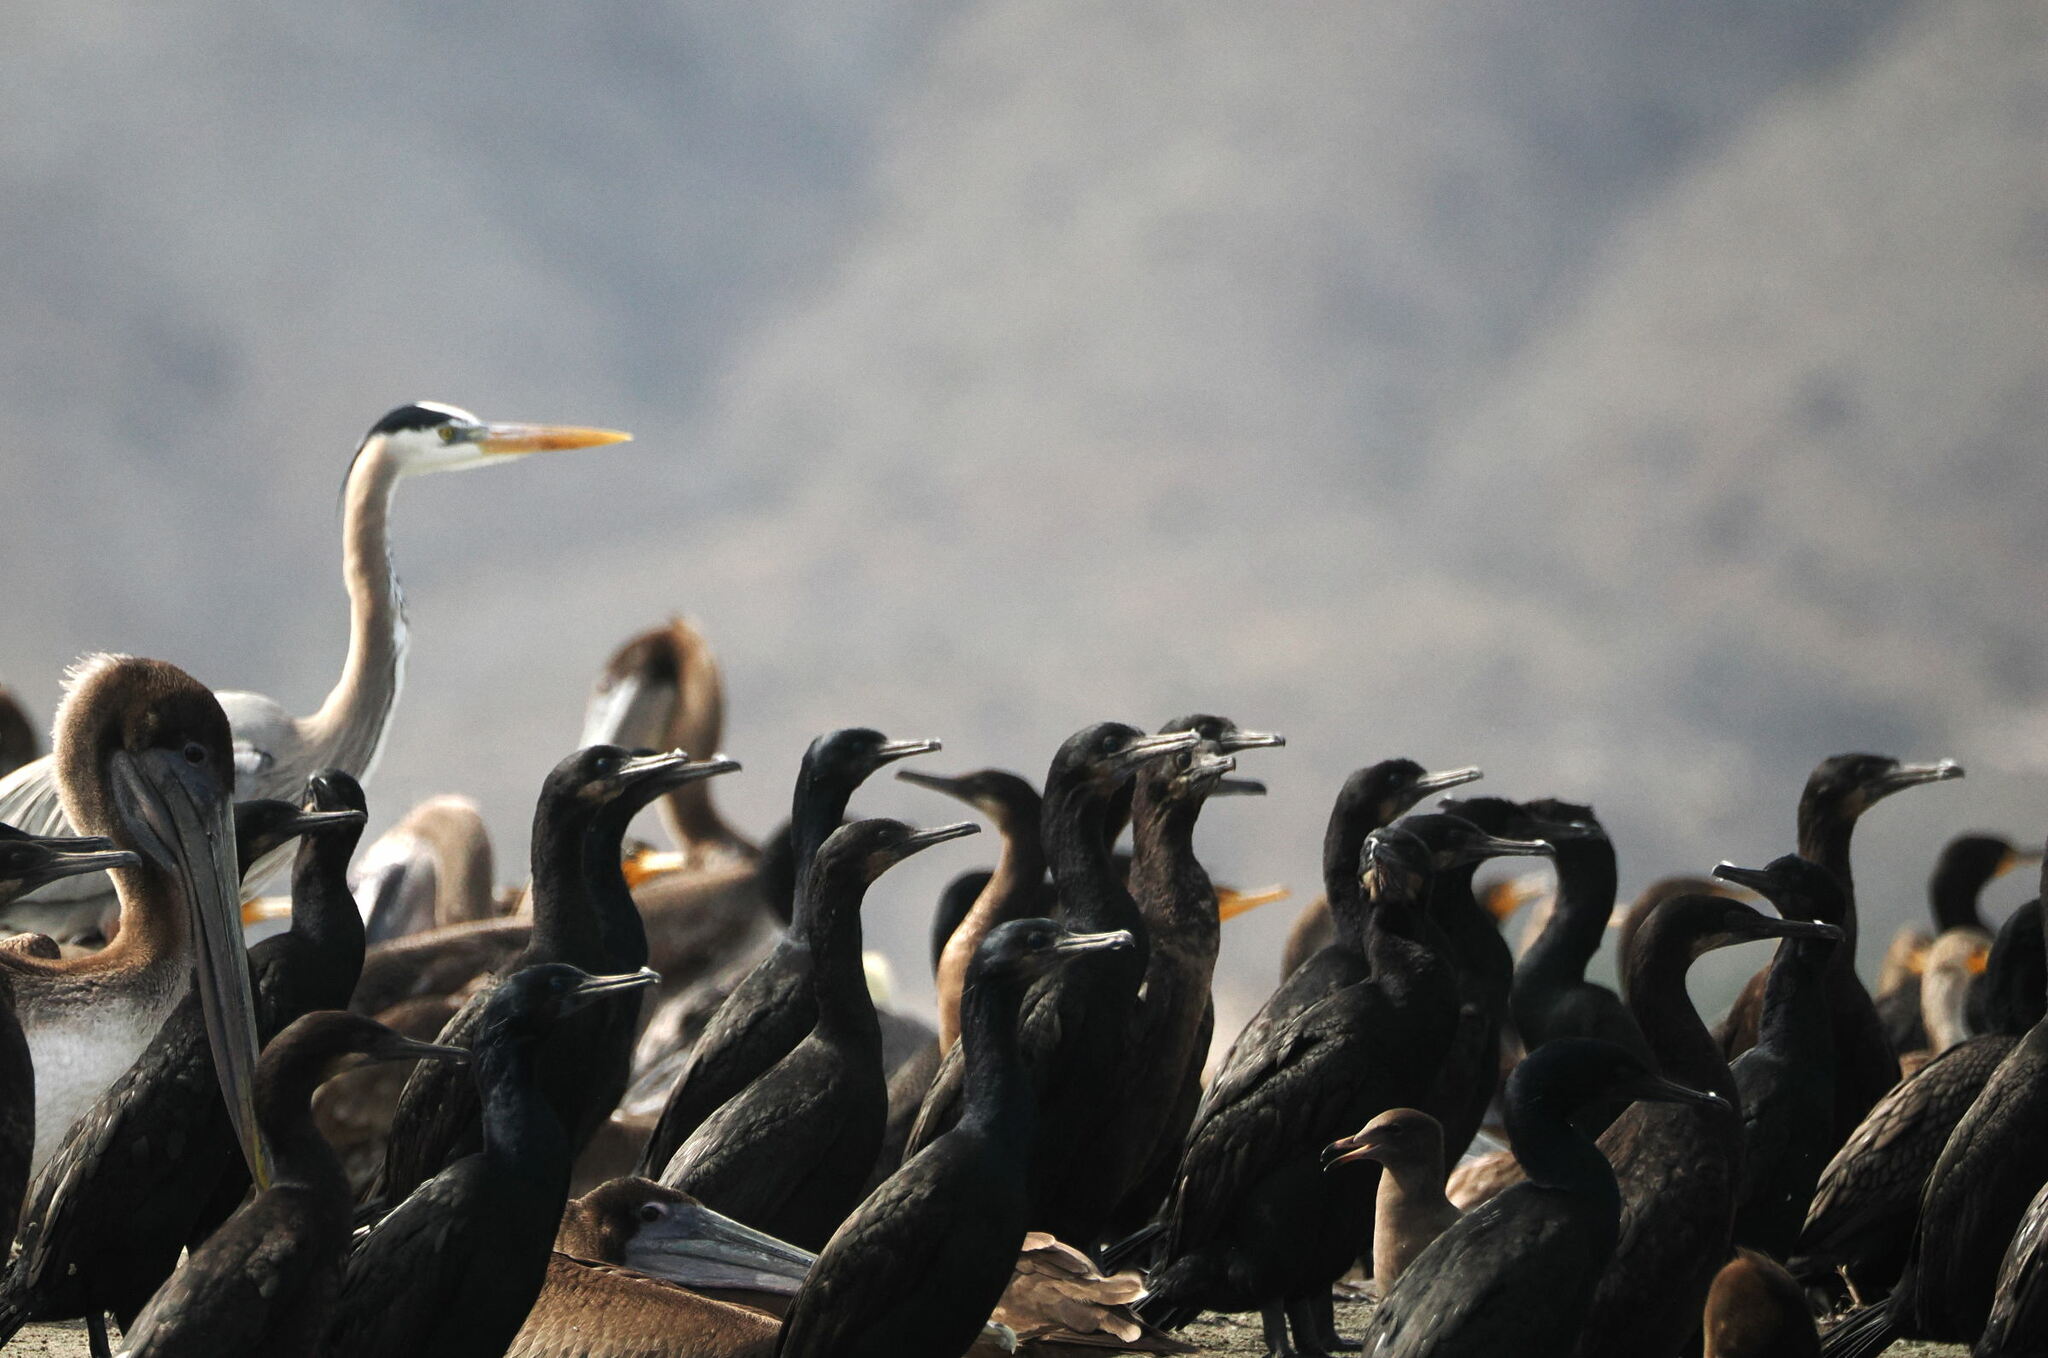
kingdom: Animalia
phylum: Chordata
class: Aves
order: Pelecaniformes
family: Ardeidae
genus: Ardea
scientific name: Ardea herodias
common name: Great blue heron
